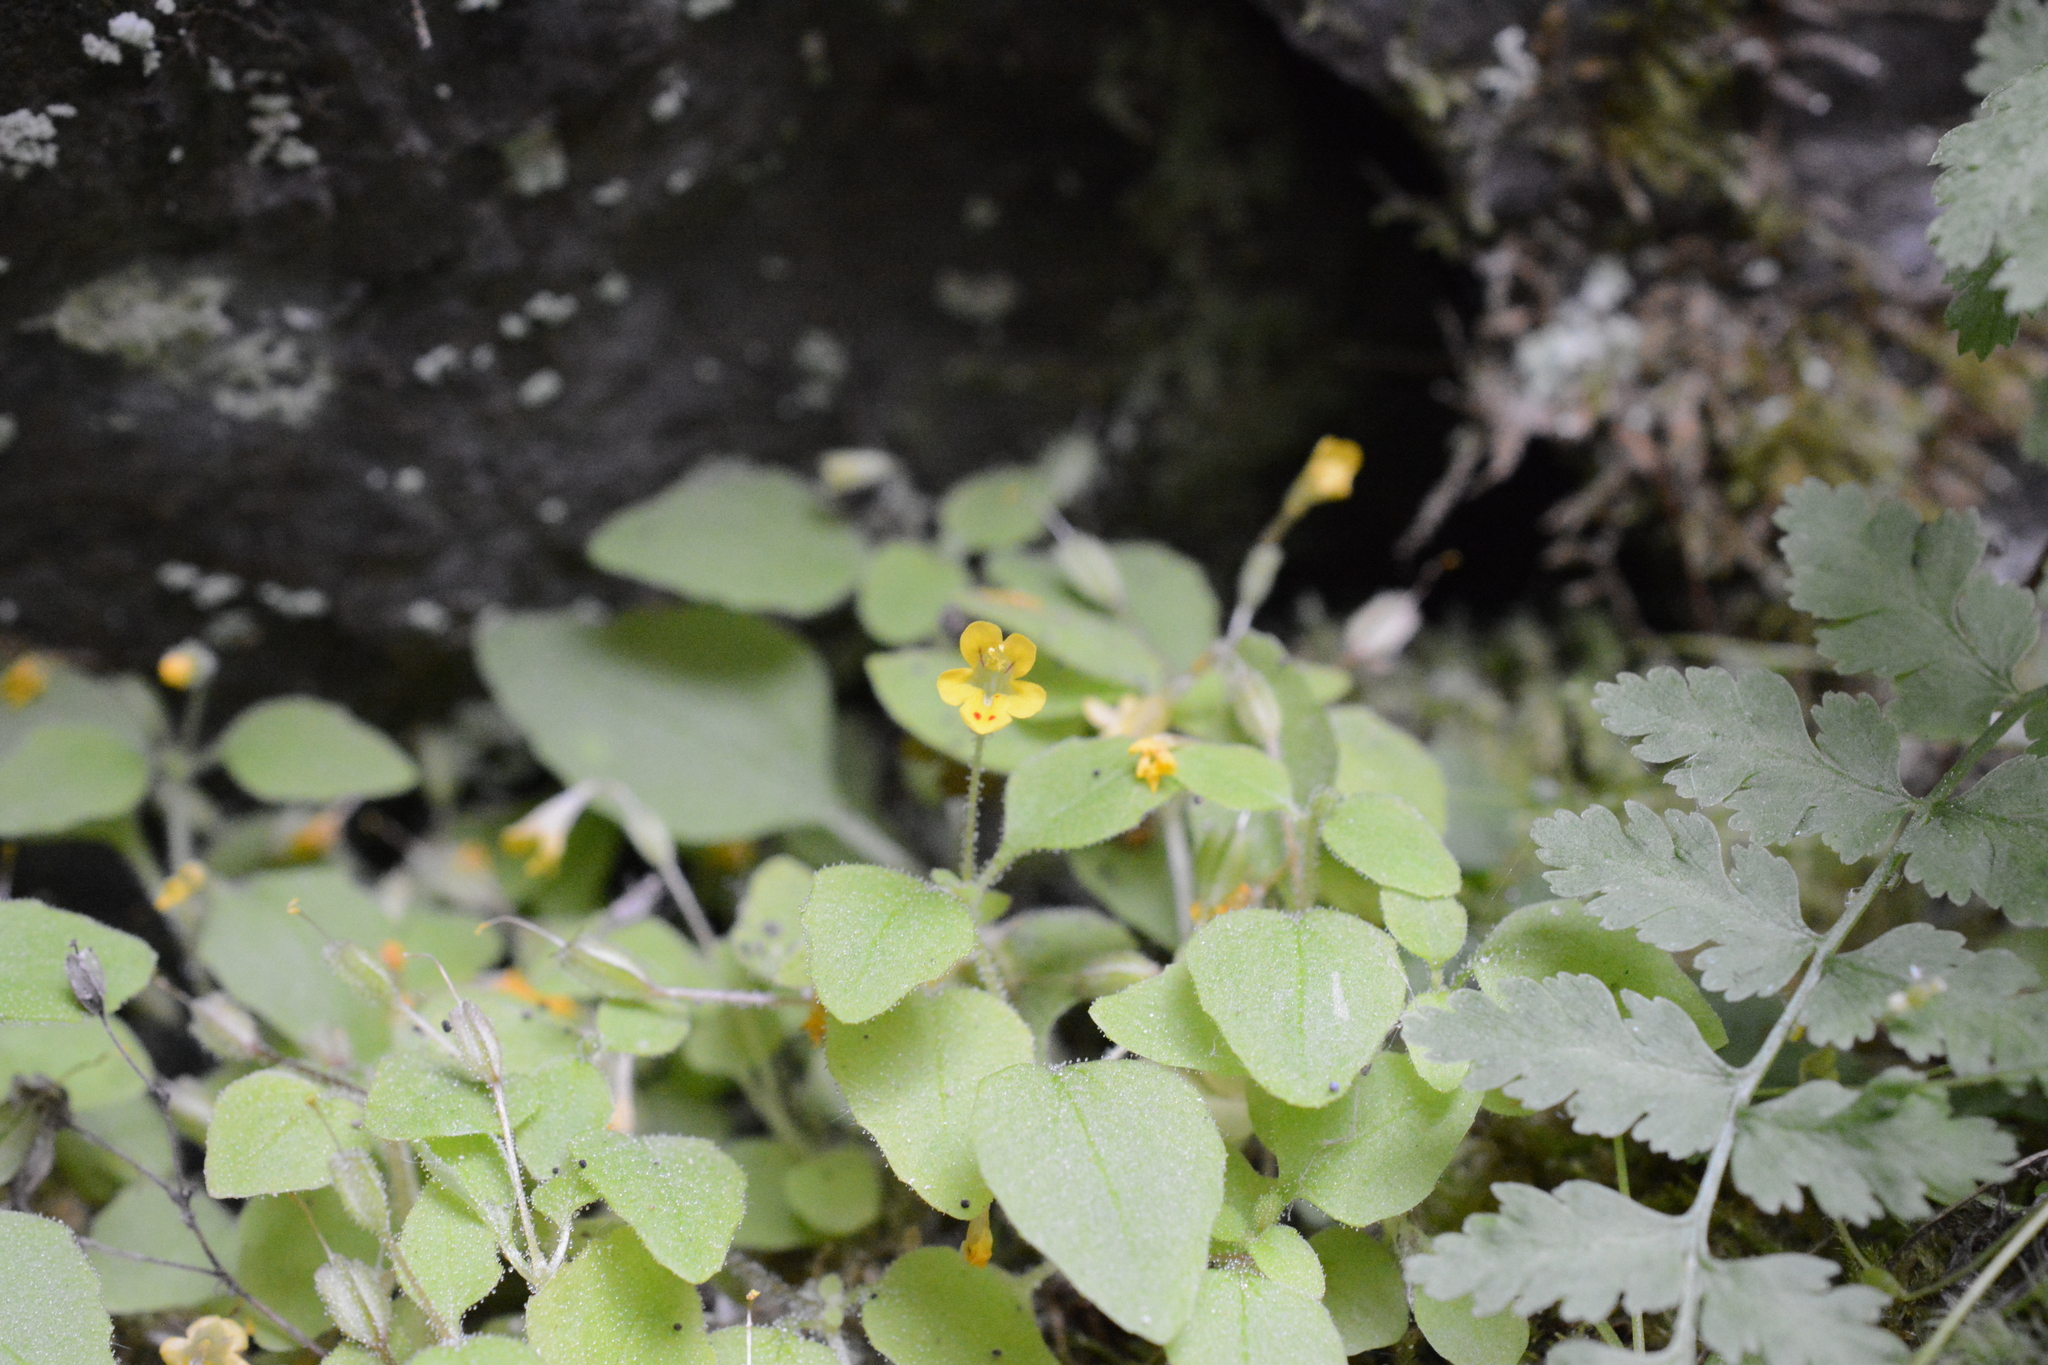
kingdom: Plantae
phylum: Tracheophyta
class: Magnoliopsida
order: Lamiales
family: Phrymaceae
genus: Erythranthe
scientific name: Erythranthe alsinoides
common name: Chickweed monkeyflower
